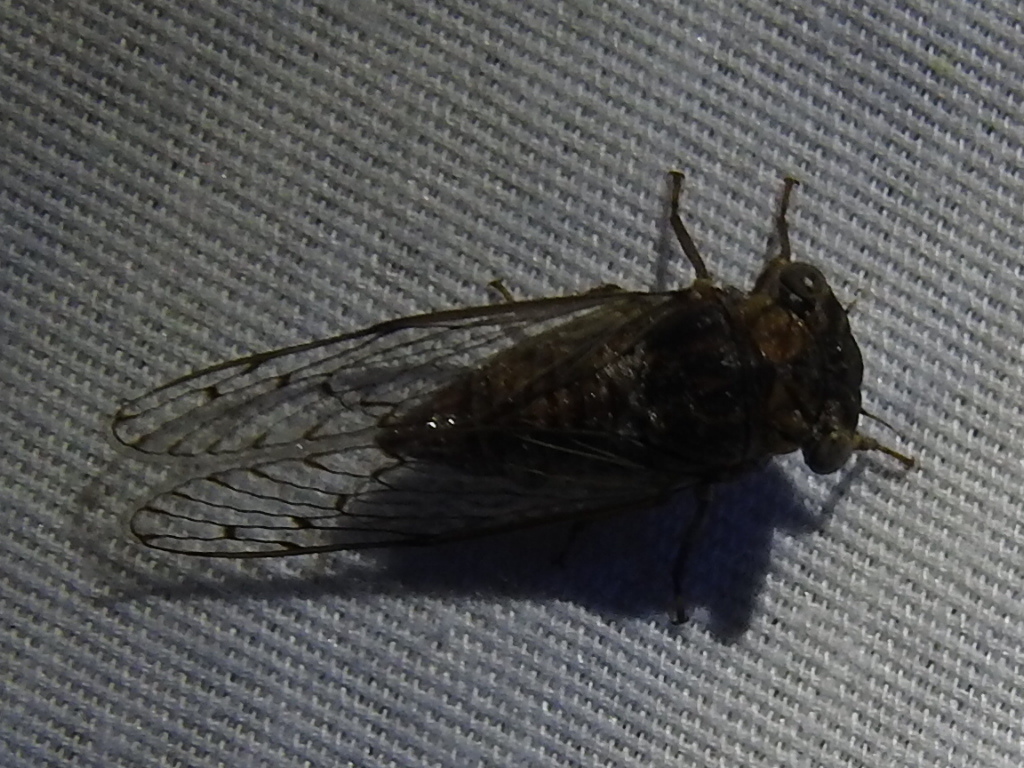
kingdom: Animalia
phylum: Arthropoda
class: Insecta
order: Hemiptera
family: Cicadidae
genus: Pacarina
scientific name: Pacarina puella
